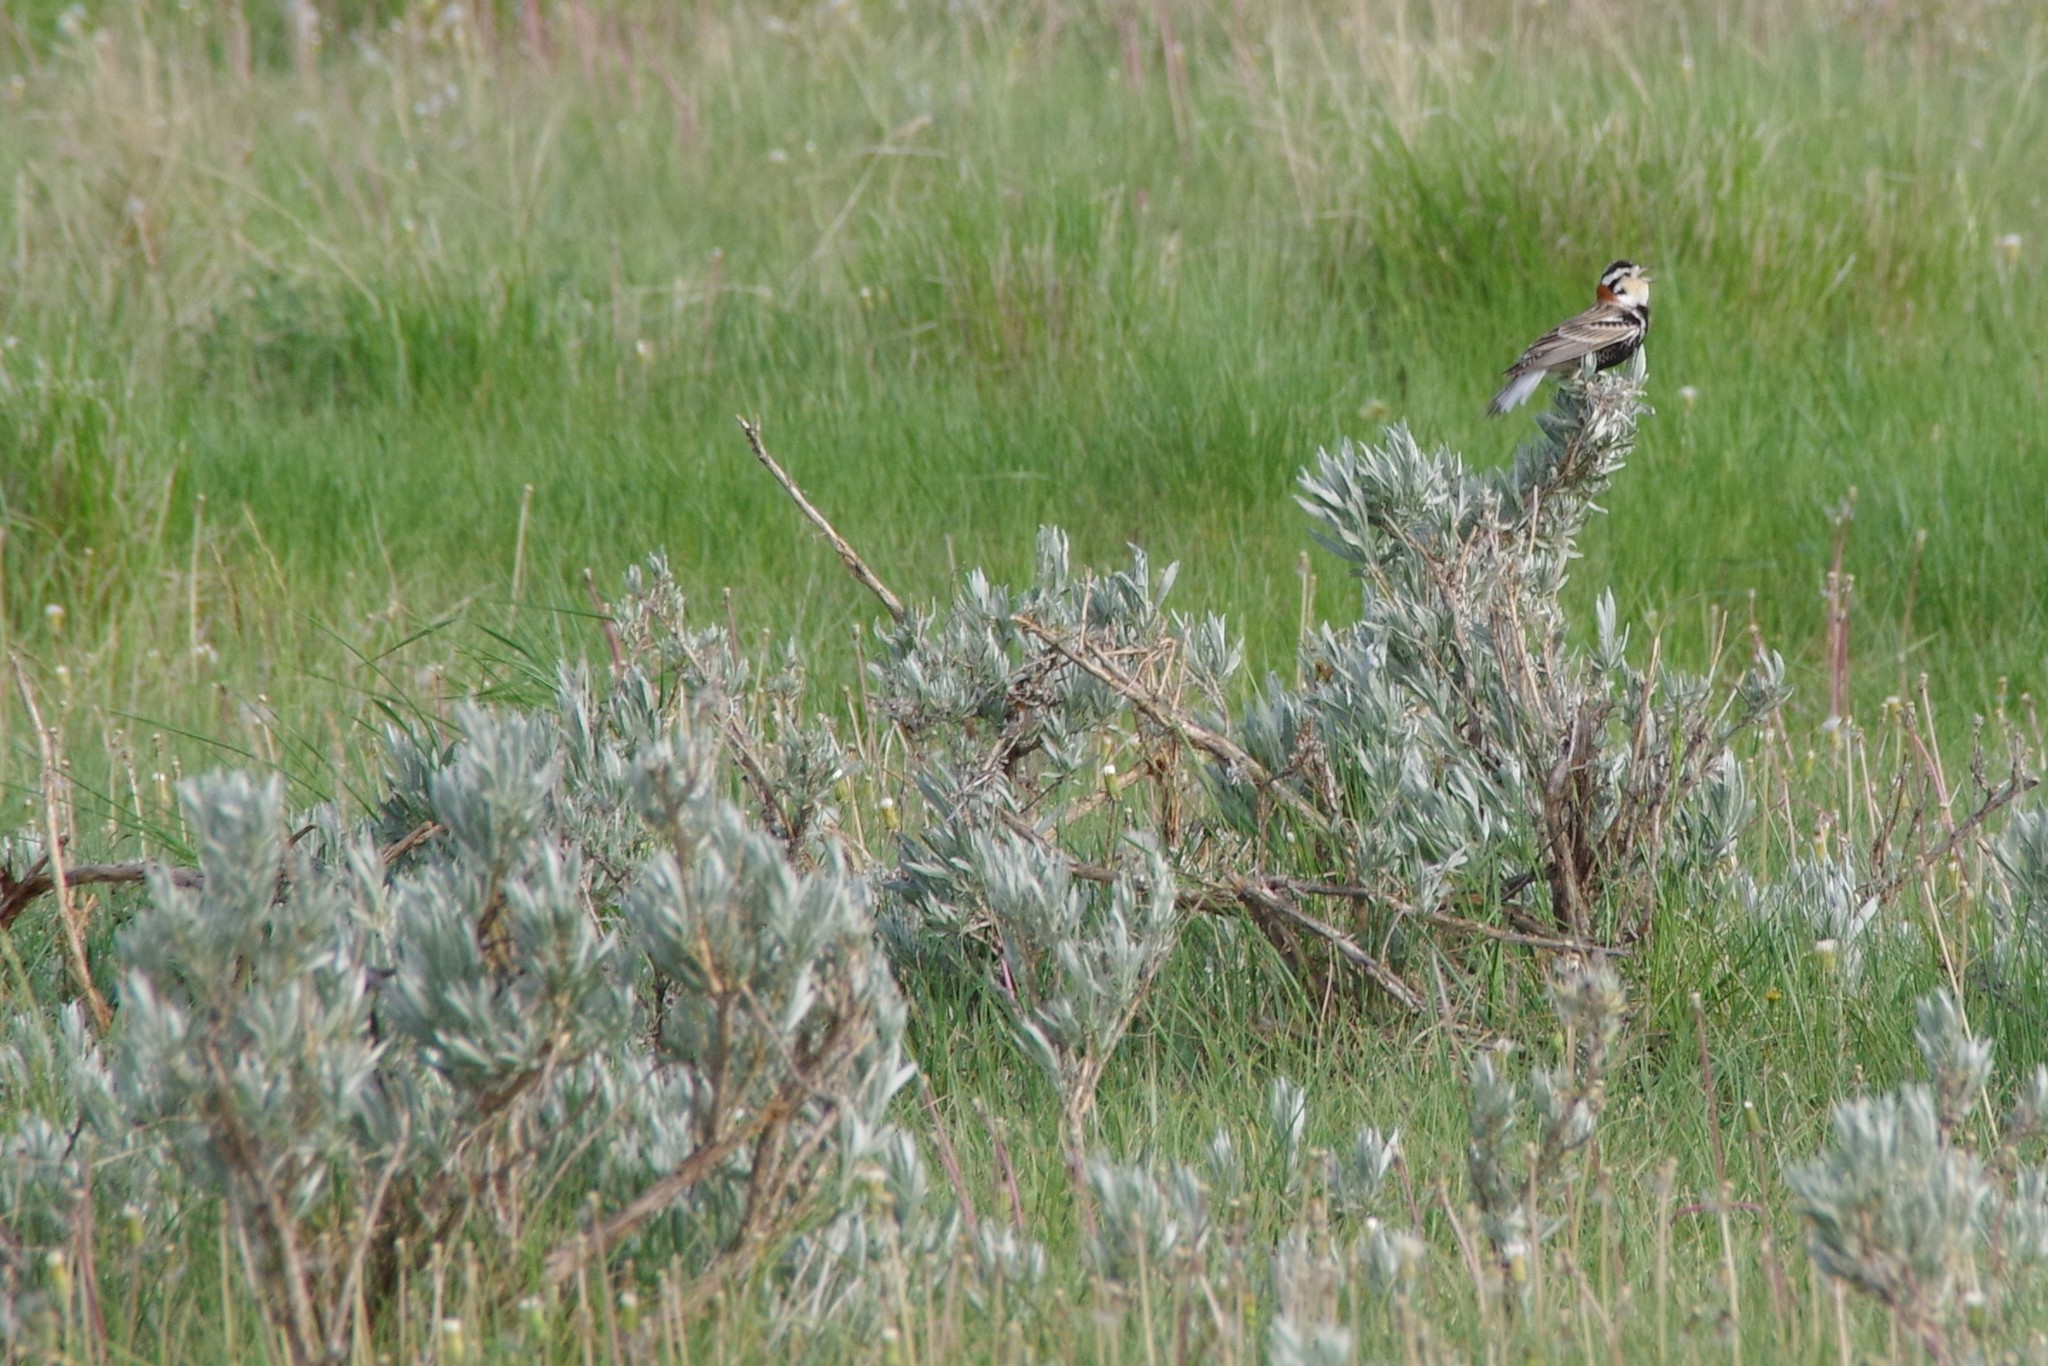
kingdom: Animalia
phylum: Chordata
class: Aves
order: Passeriformes
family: Calcariidae
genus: Calcarius
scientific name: Calcarius ornatus
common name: Chestnut-collared longspur
